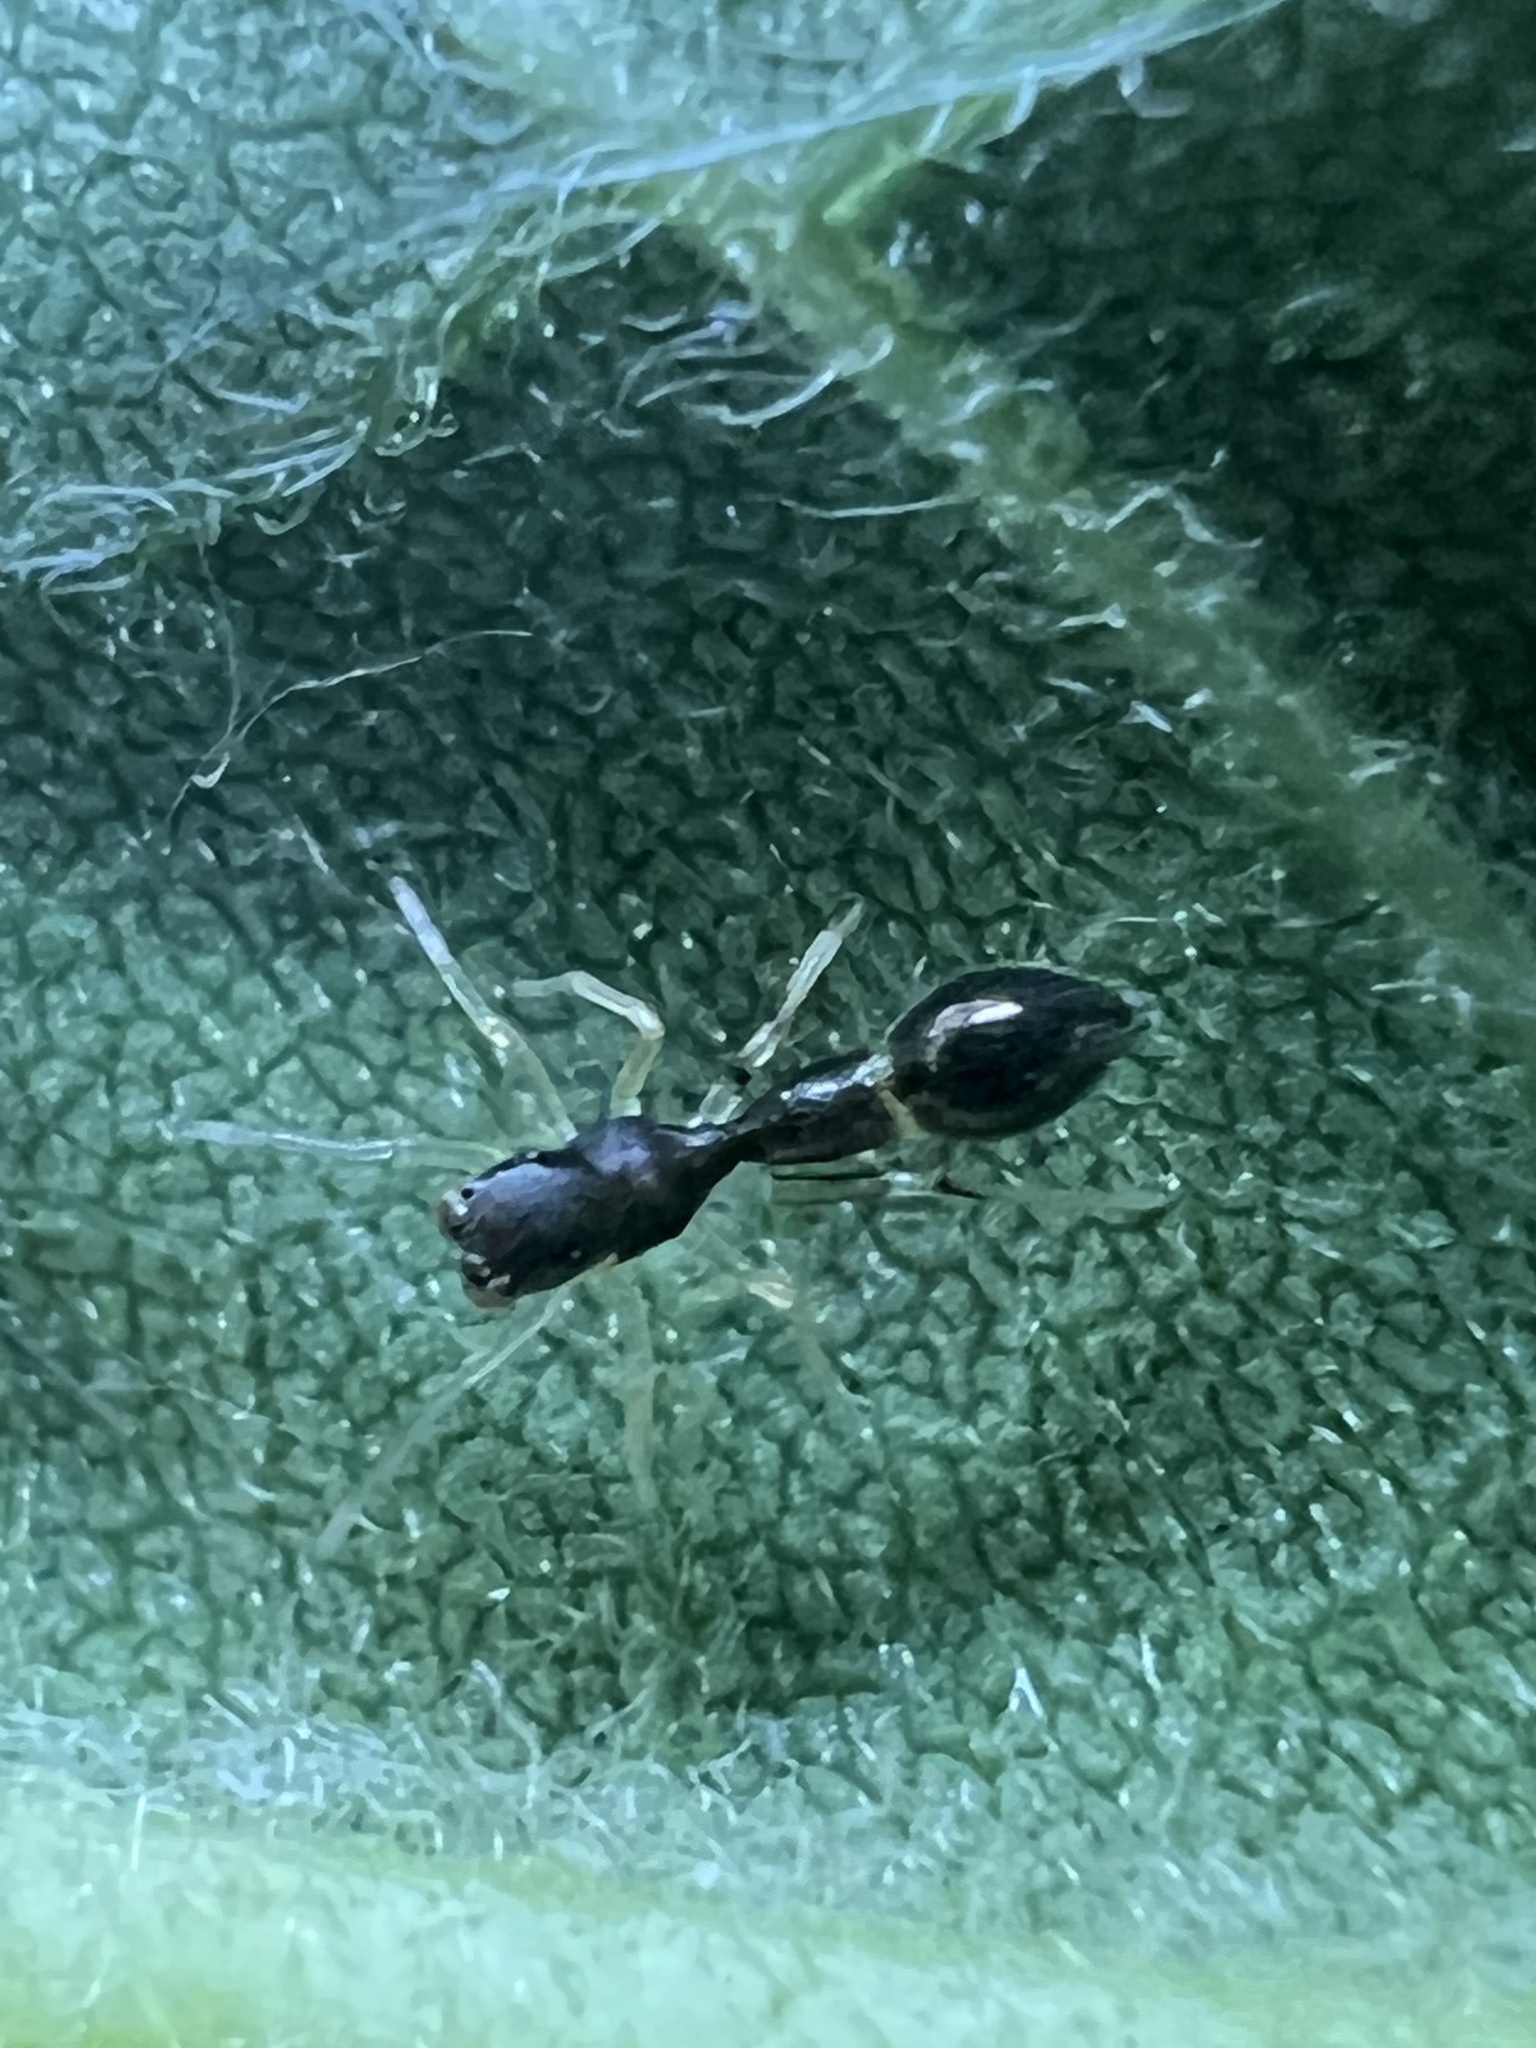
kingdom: Animalia
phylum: Arthropoda
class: Arachnida
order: Araneae
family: Salticidae
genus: Synemosyna
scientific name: Synemosyna formica
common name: Slender ant-mimic jumping spider
